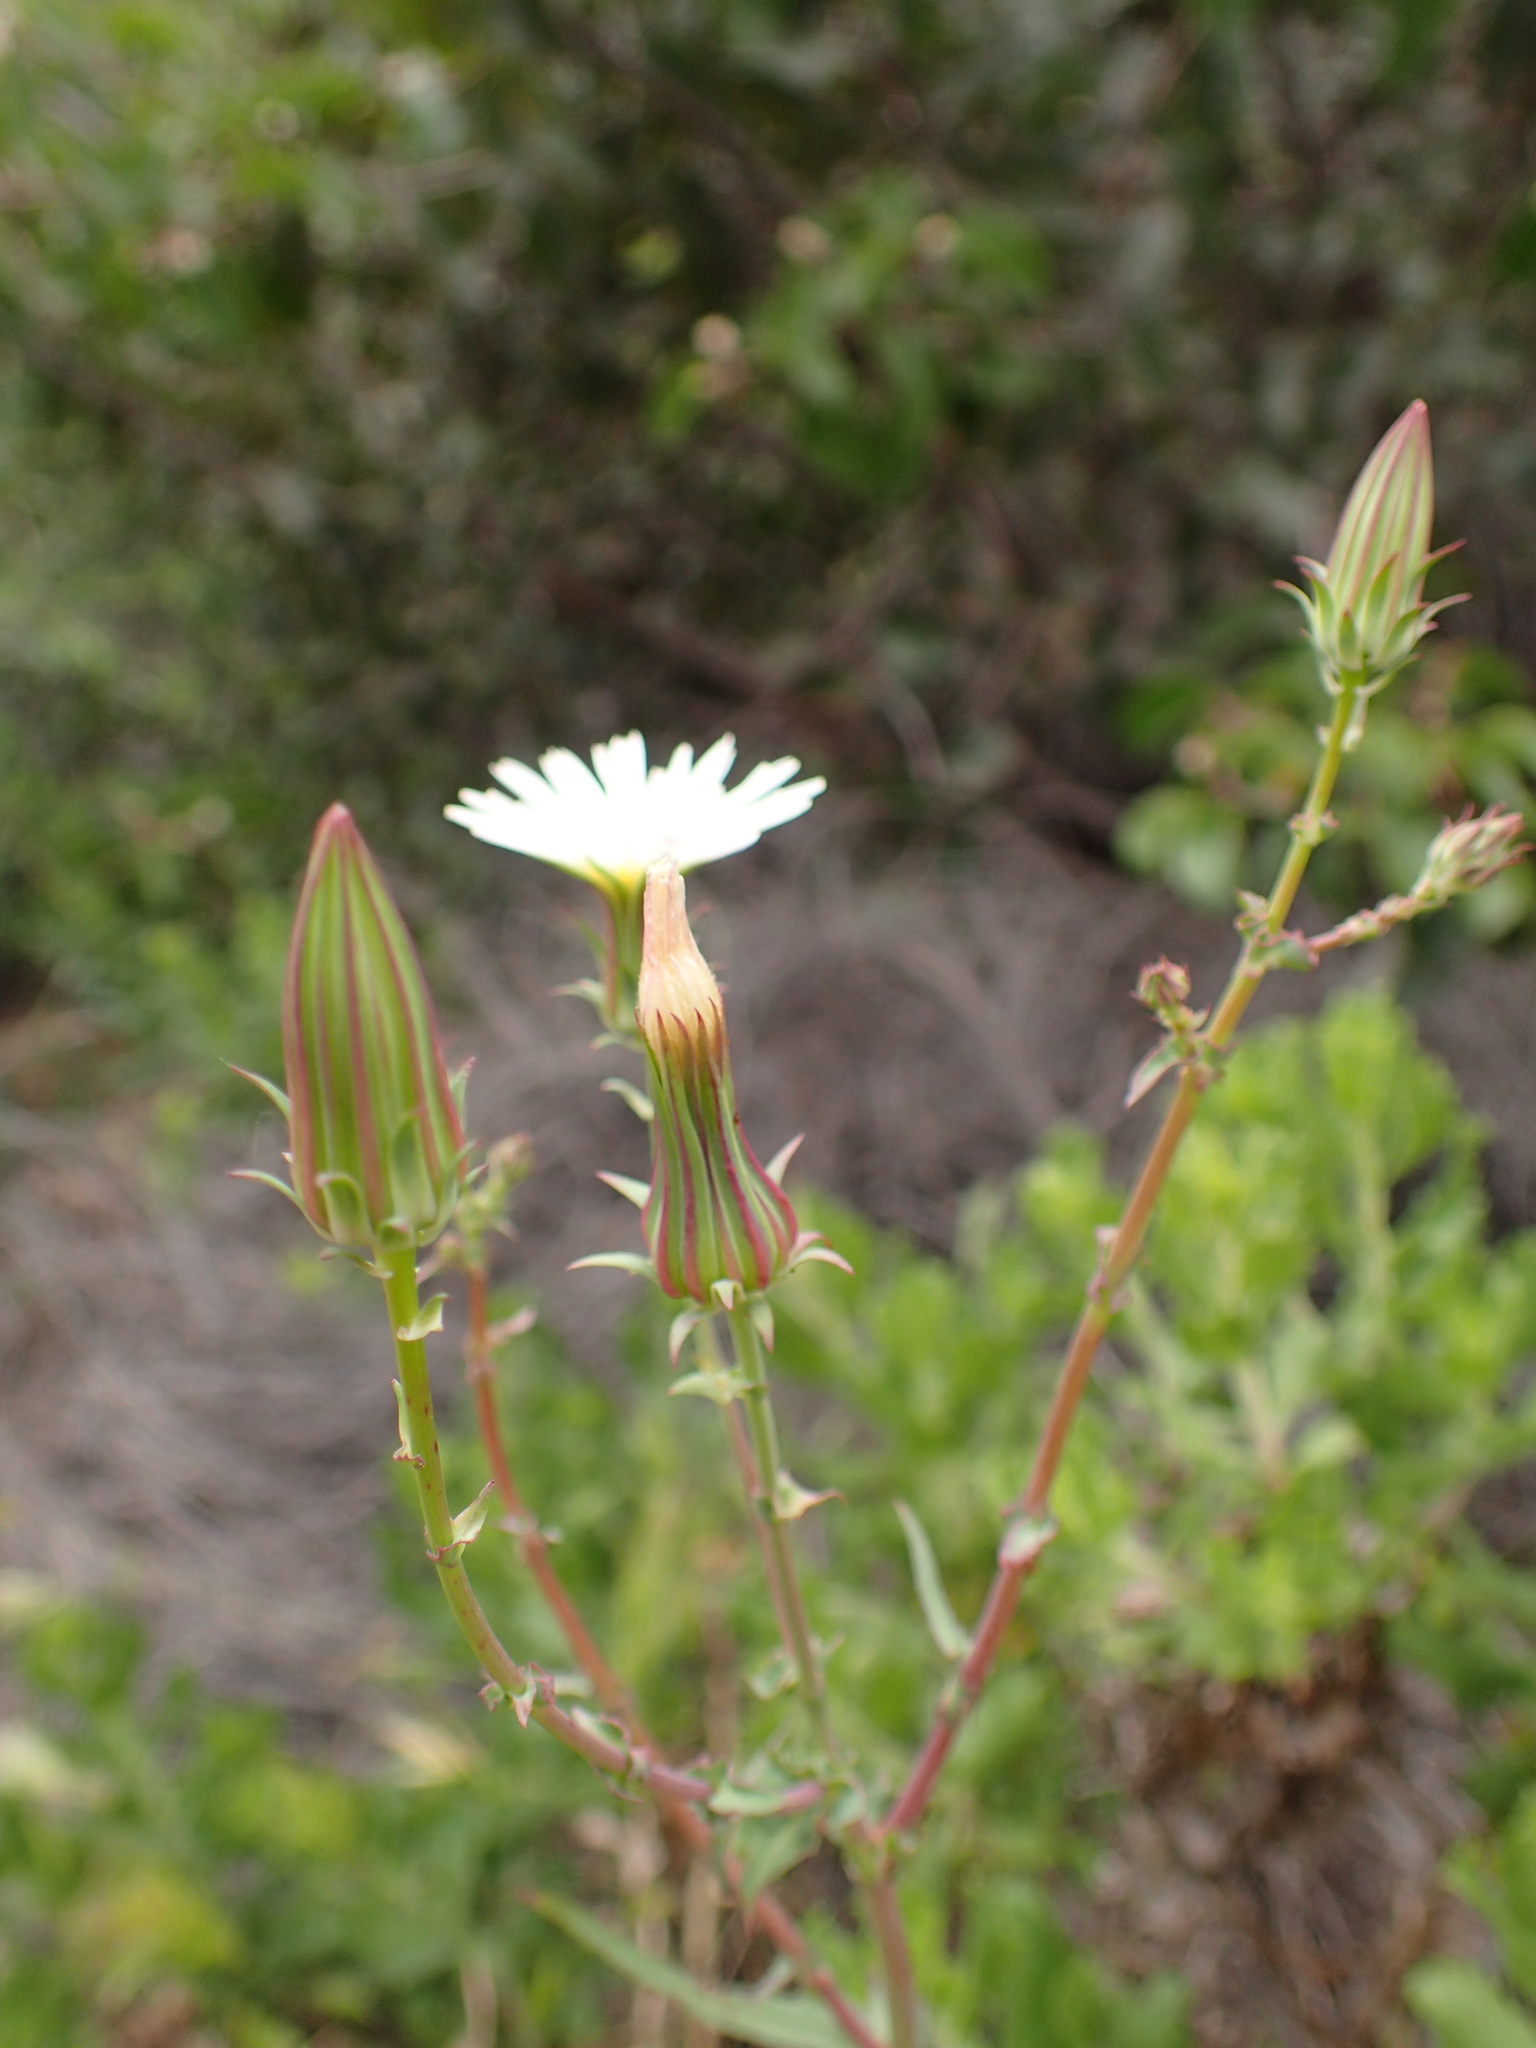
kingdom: Plantae
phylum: Tracheophyta
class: Magnoliopsida
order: Asterales
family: Asteraceae
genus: Rafinesquia
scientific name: Rafinesquia californica
